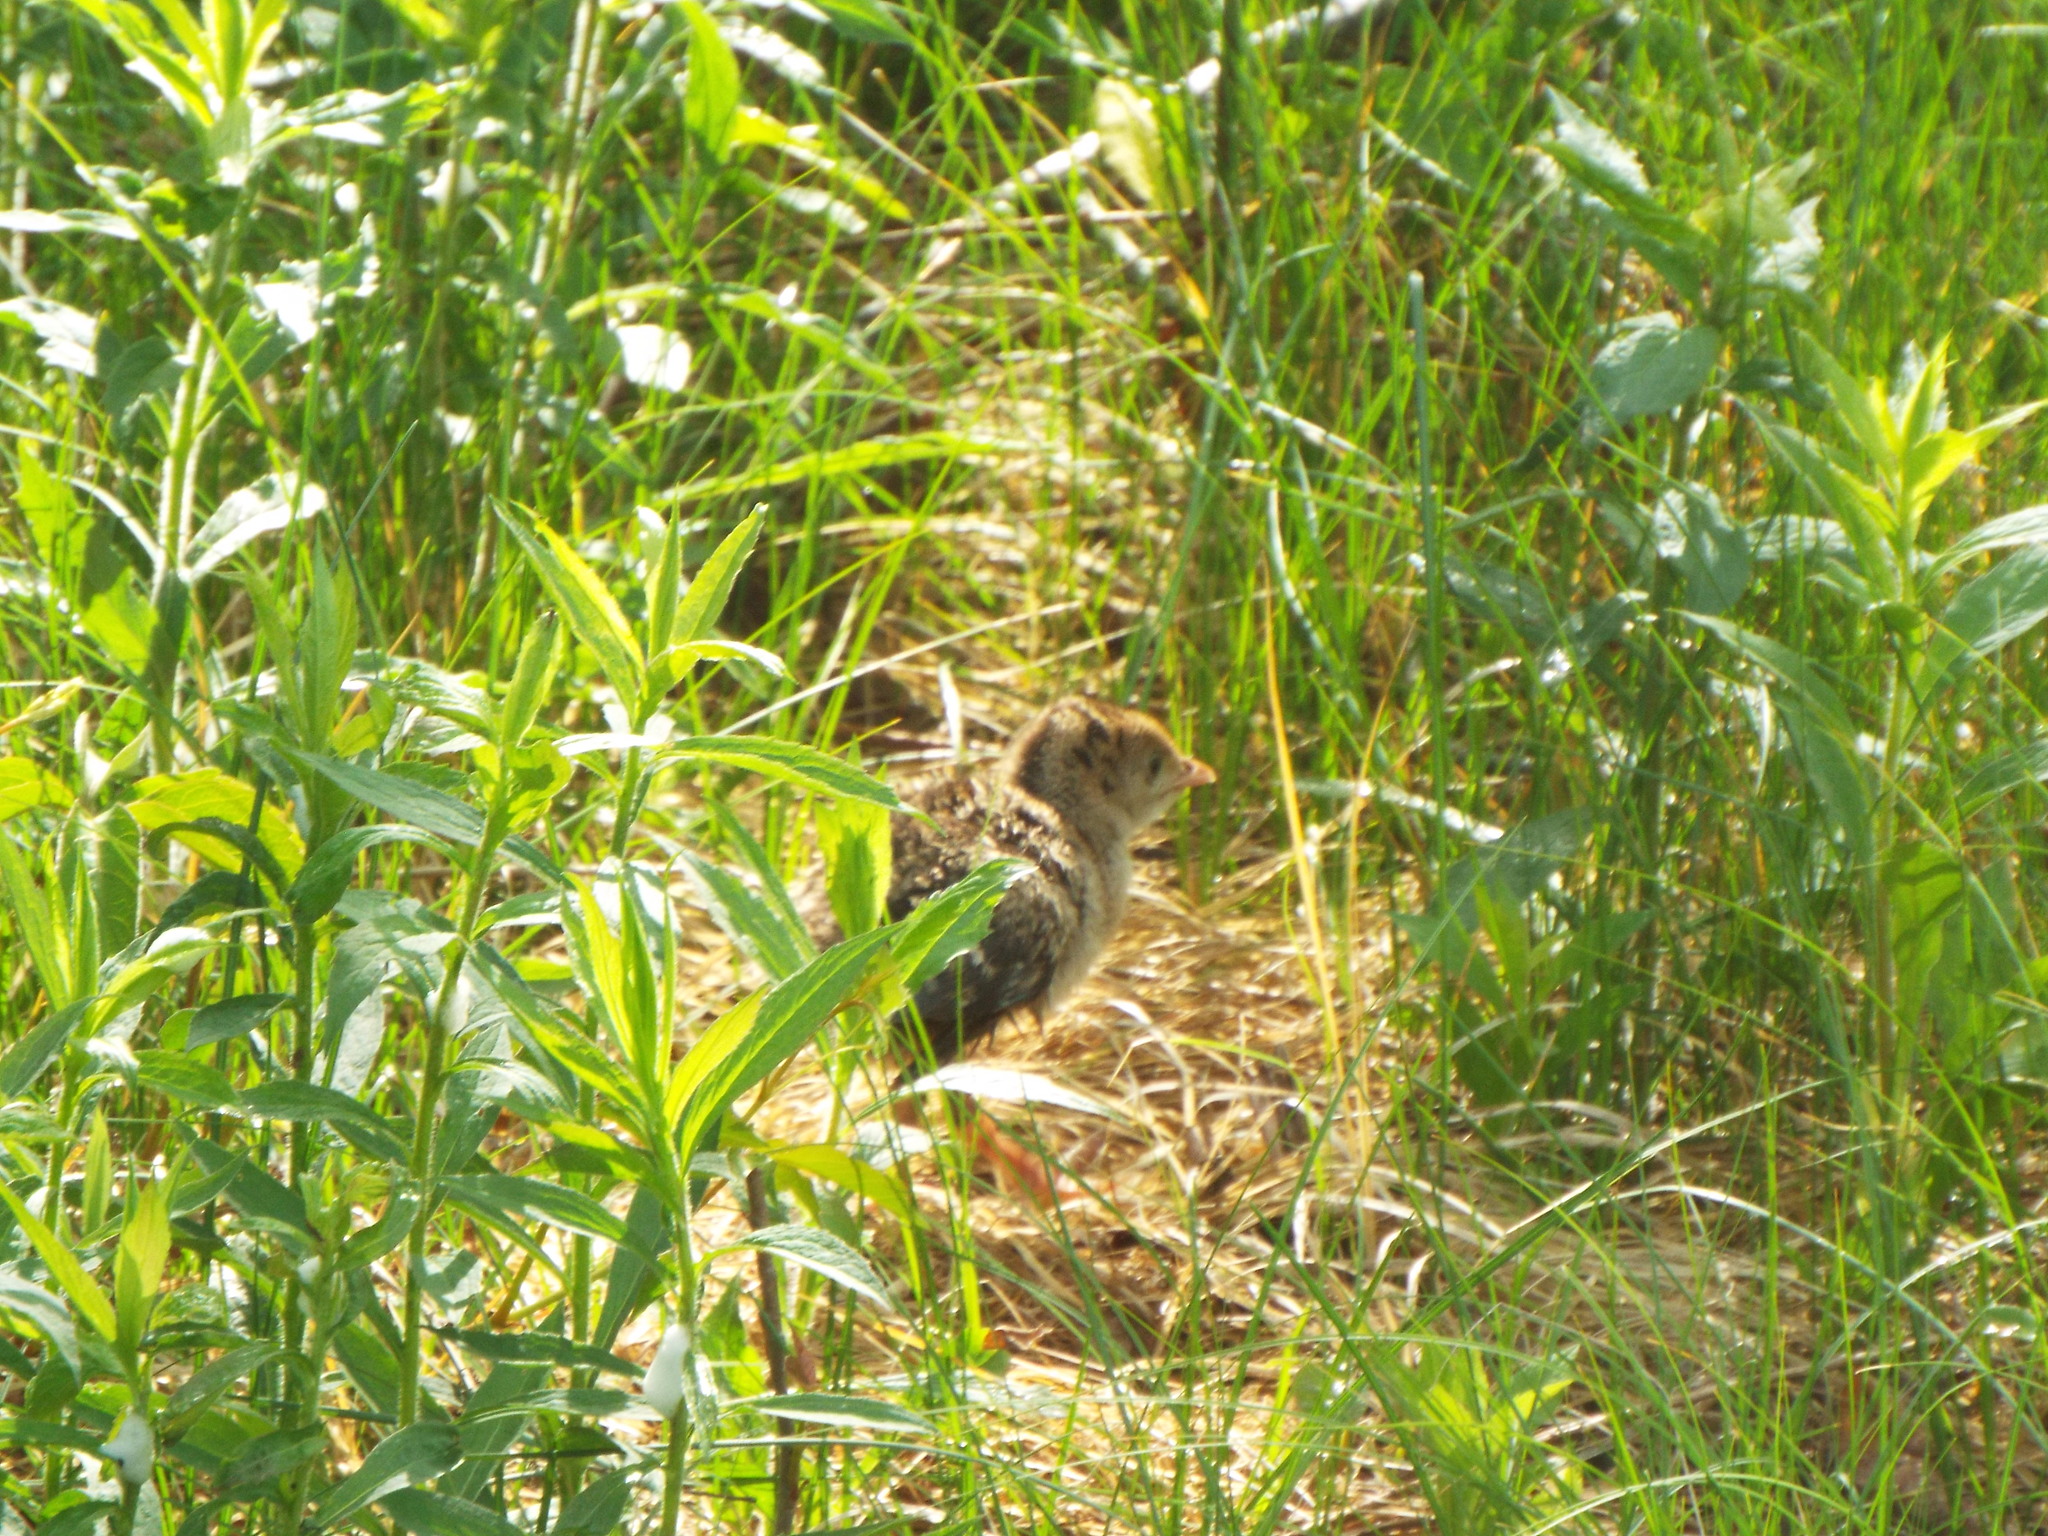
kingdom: Animalia
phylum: Chordata
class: Aves
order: Galliformes
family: Phasianidae
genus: Meleagris
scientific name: Meleagris gallopavo
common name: Wild turkey
